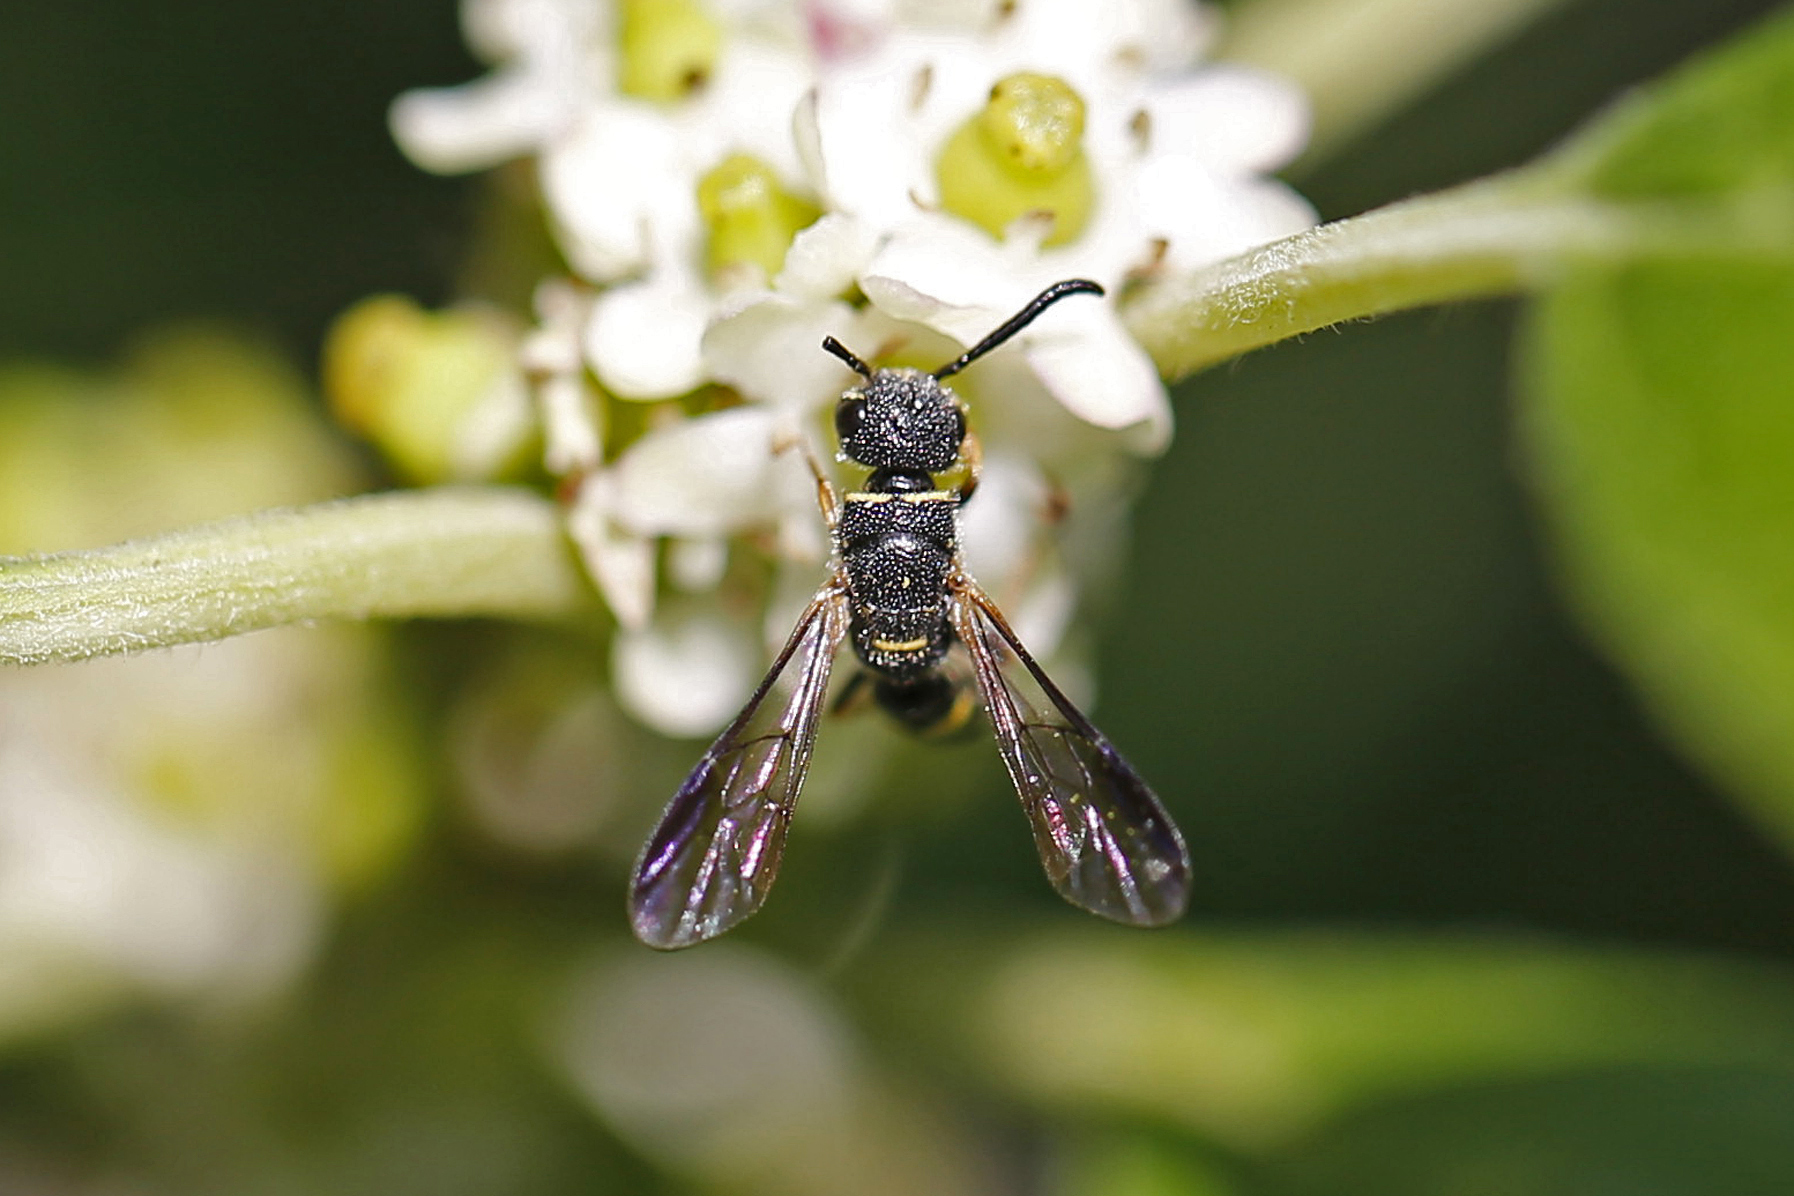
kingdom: Animalia
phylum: Arthropoda
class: Insecta
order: Hymenoptera
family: Sapygidae
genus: Sapyga
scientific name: Sapyga louisi
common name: Louis's club-horned cuckoo wasp
